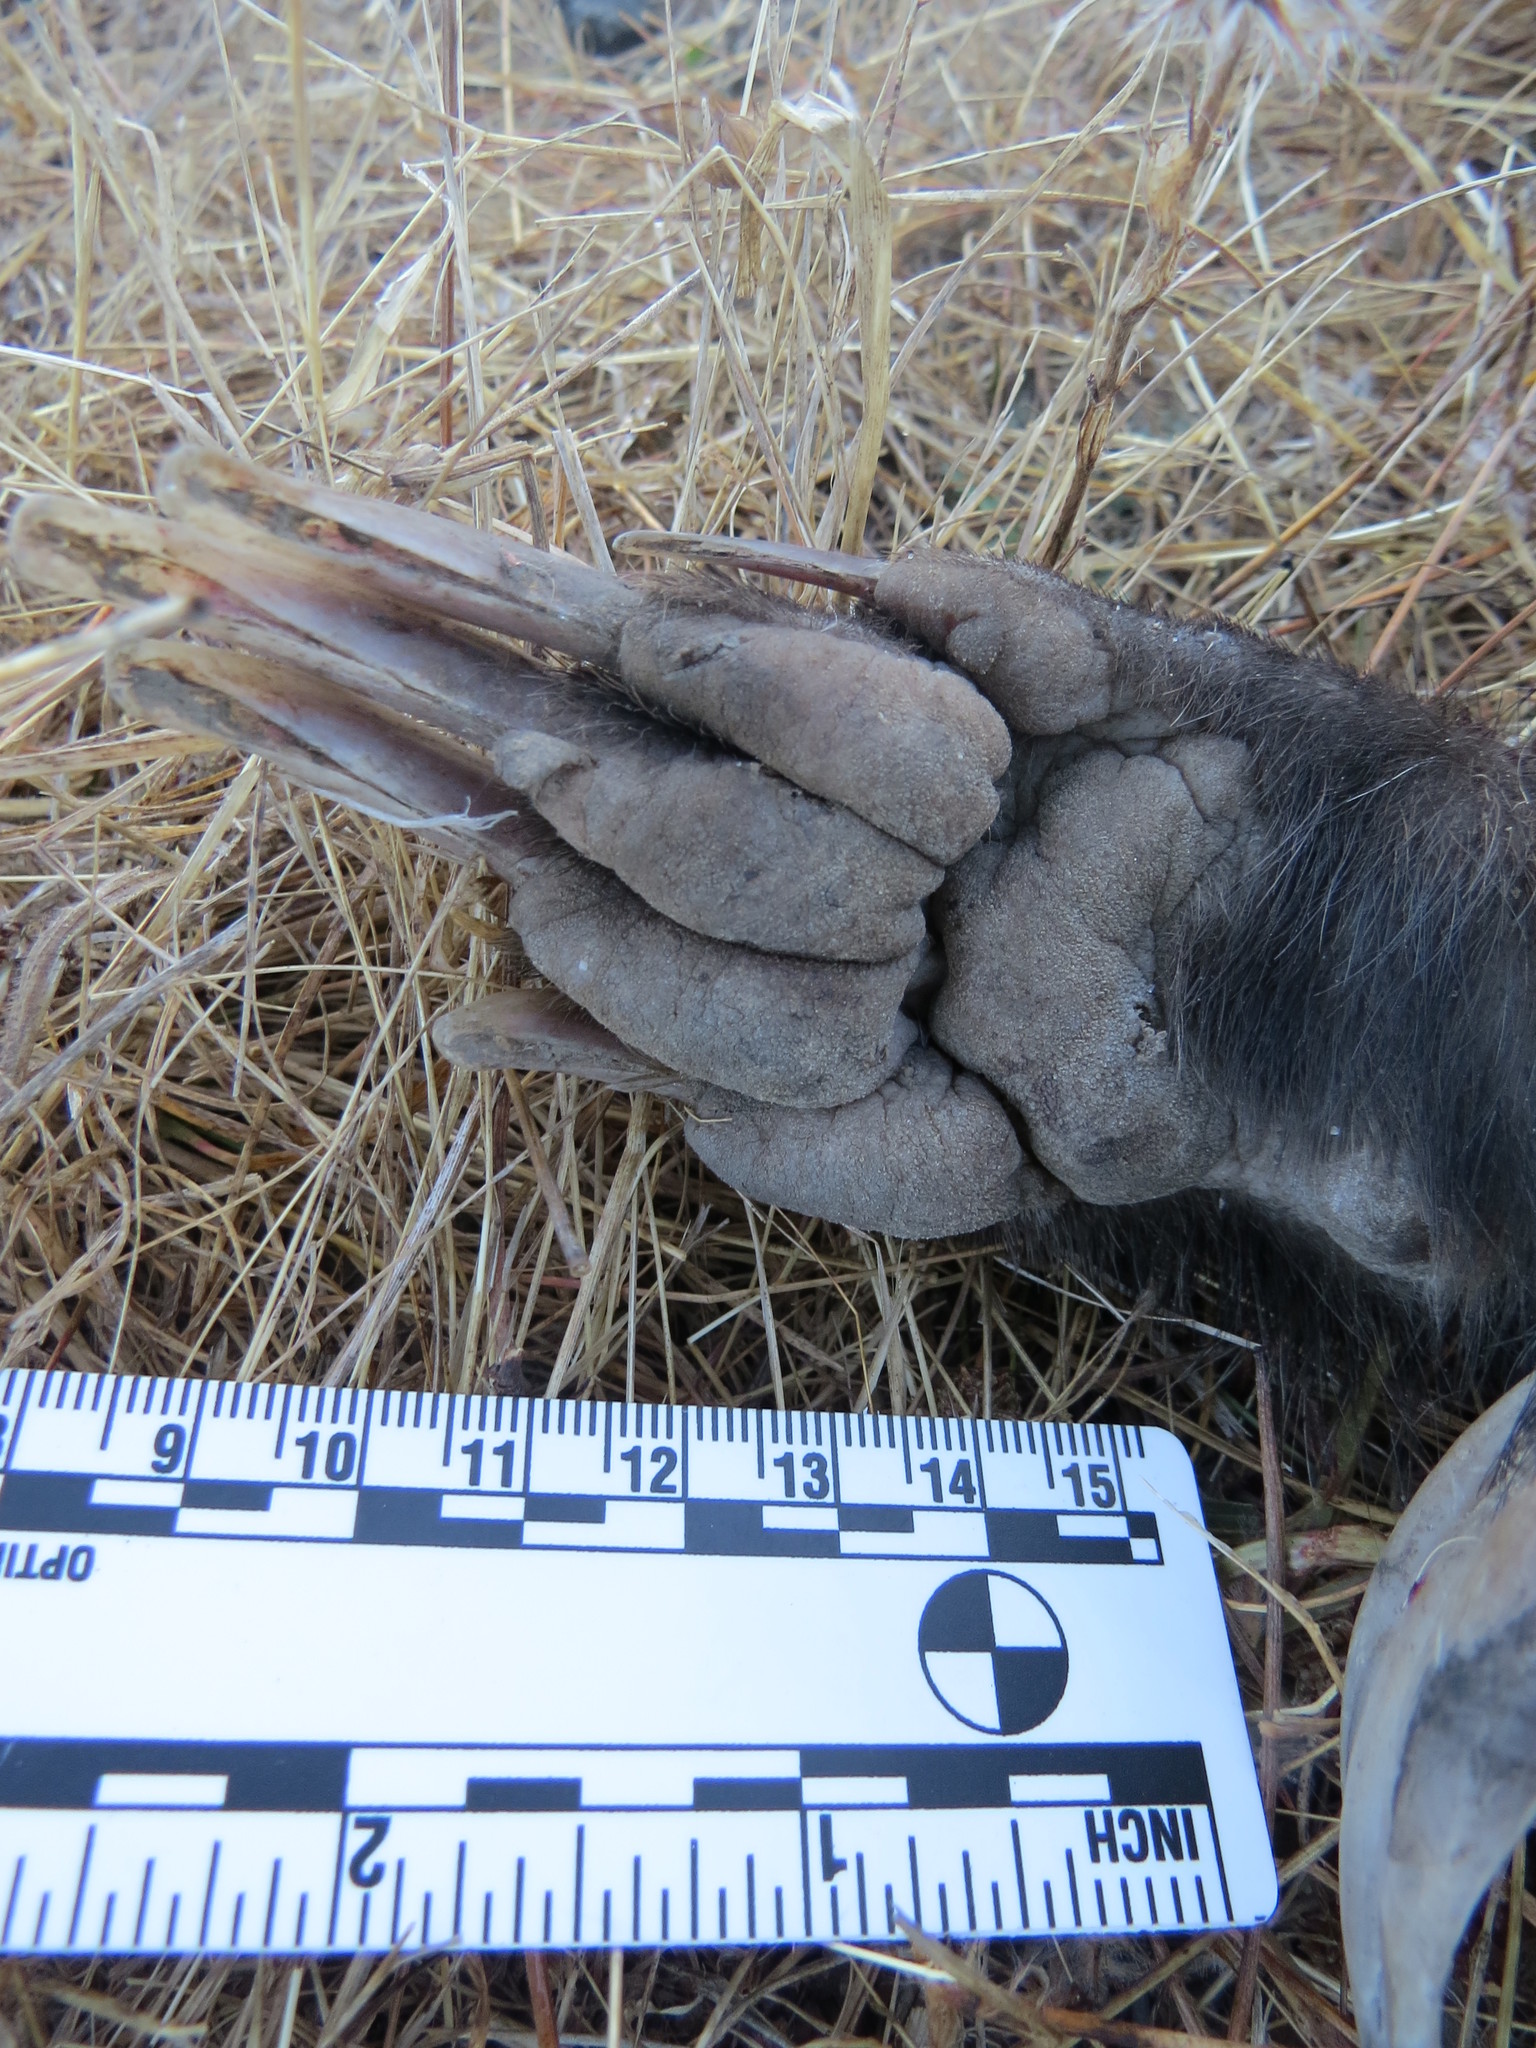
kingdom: Animalia
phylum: Chordata
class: Mammalia
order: Carnivora
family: Mustelidae
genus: Taxidea
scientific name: Taxidea taxus
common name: American badger
